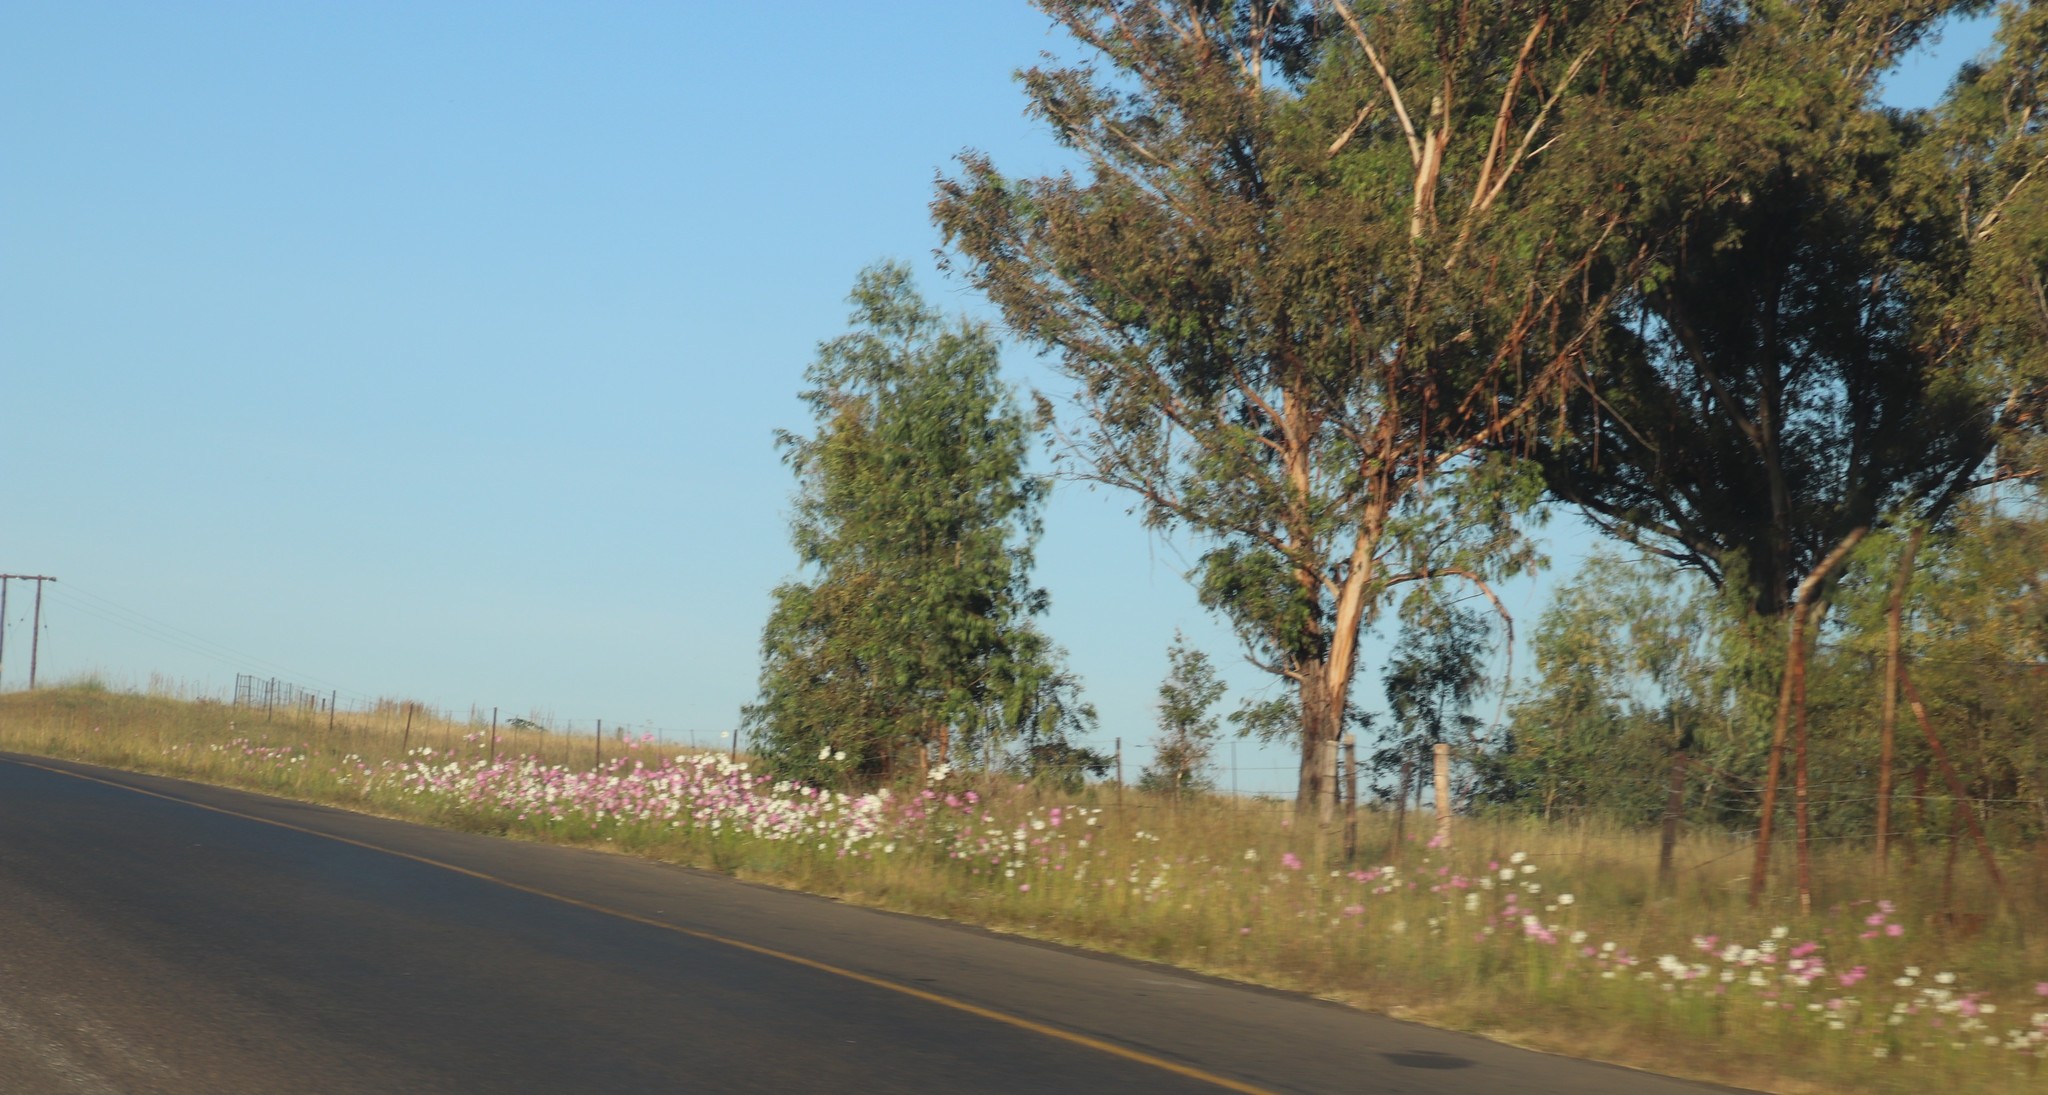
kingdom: Plantae
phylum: Tracheophyta
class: Magnoliopsida
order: Asterales
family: Asteraceae
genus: Cosmos
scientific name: Cosmos bipinnatus
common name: Garden cosmos
